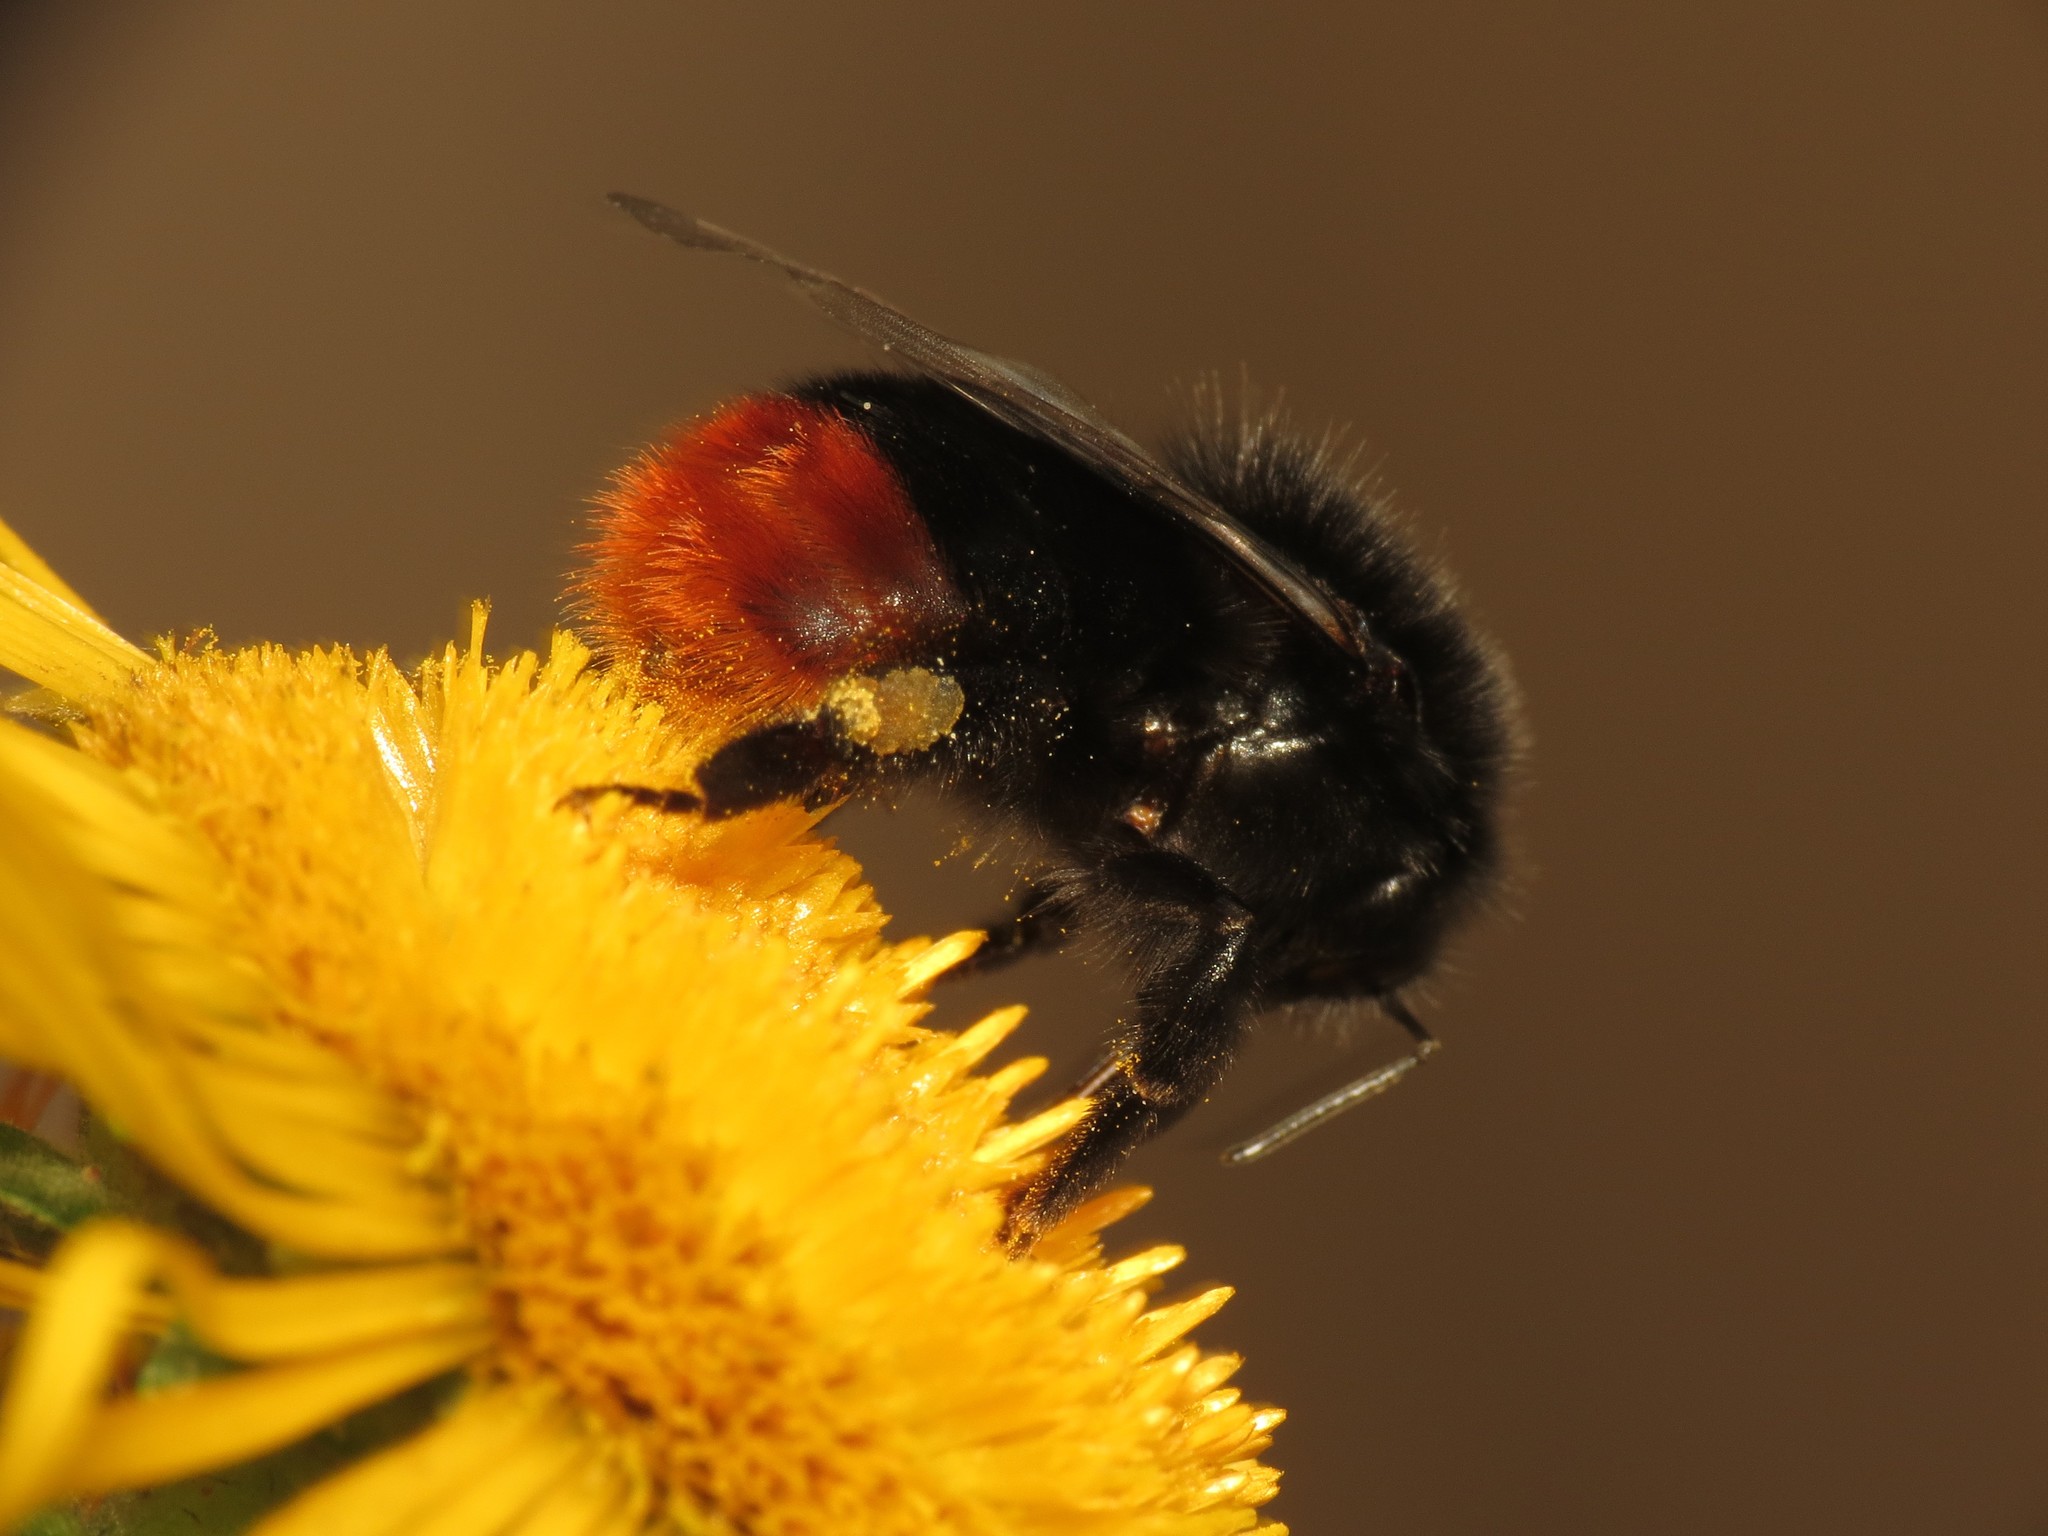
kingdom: Animalia
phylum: Arthropoda
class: Insecta
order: Hymenoptera
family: Apidae
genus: Bombus
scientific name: Bombus lapidarius
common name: Large red-tailed humble-bee
